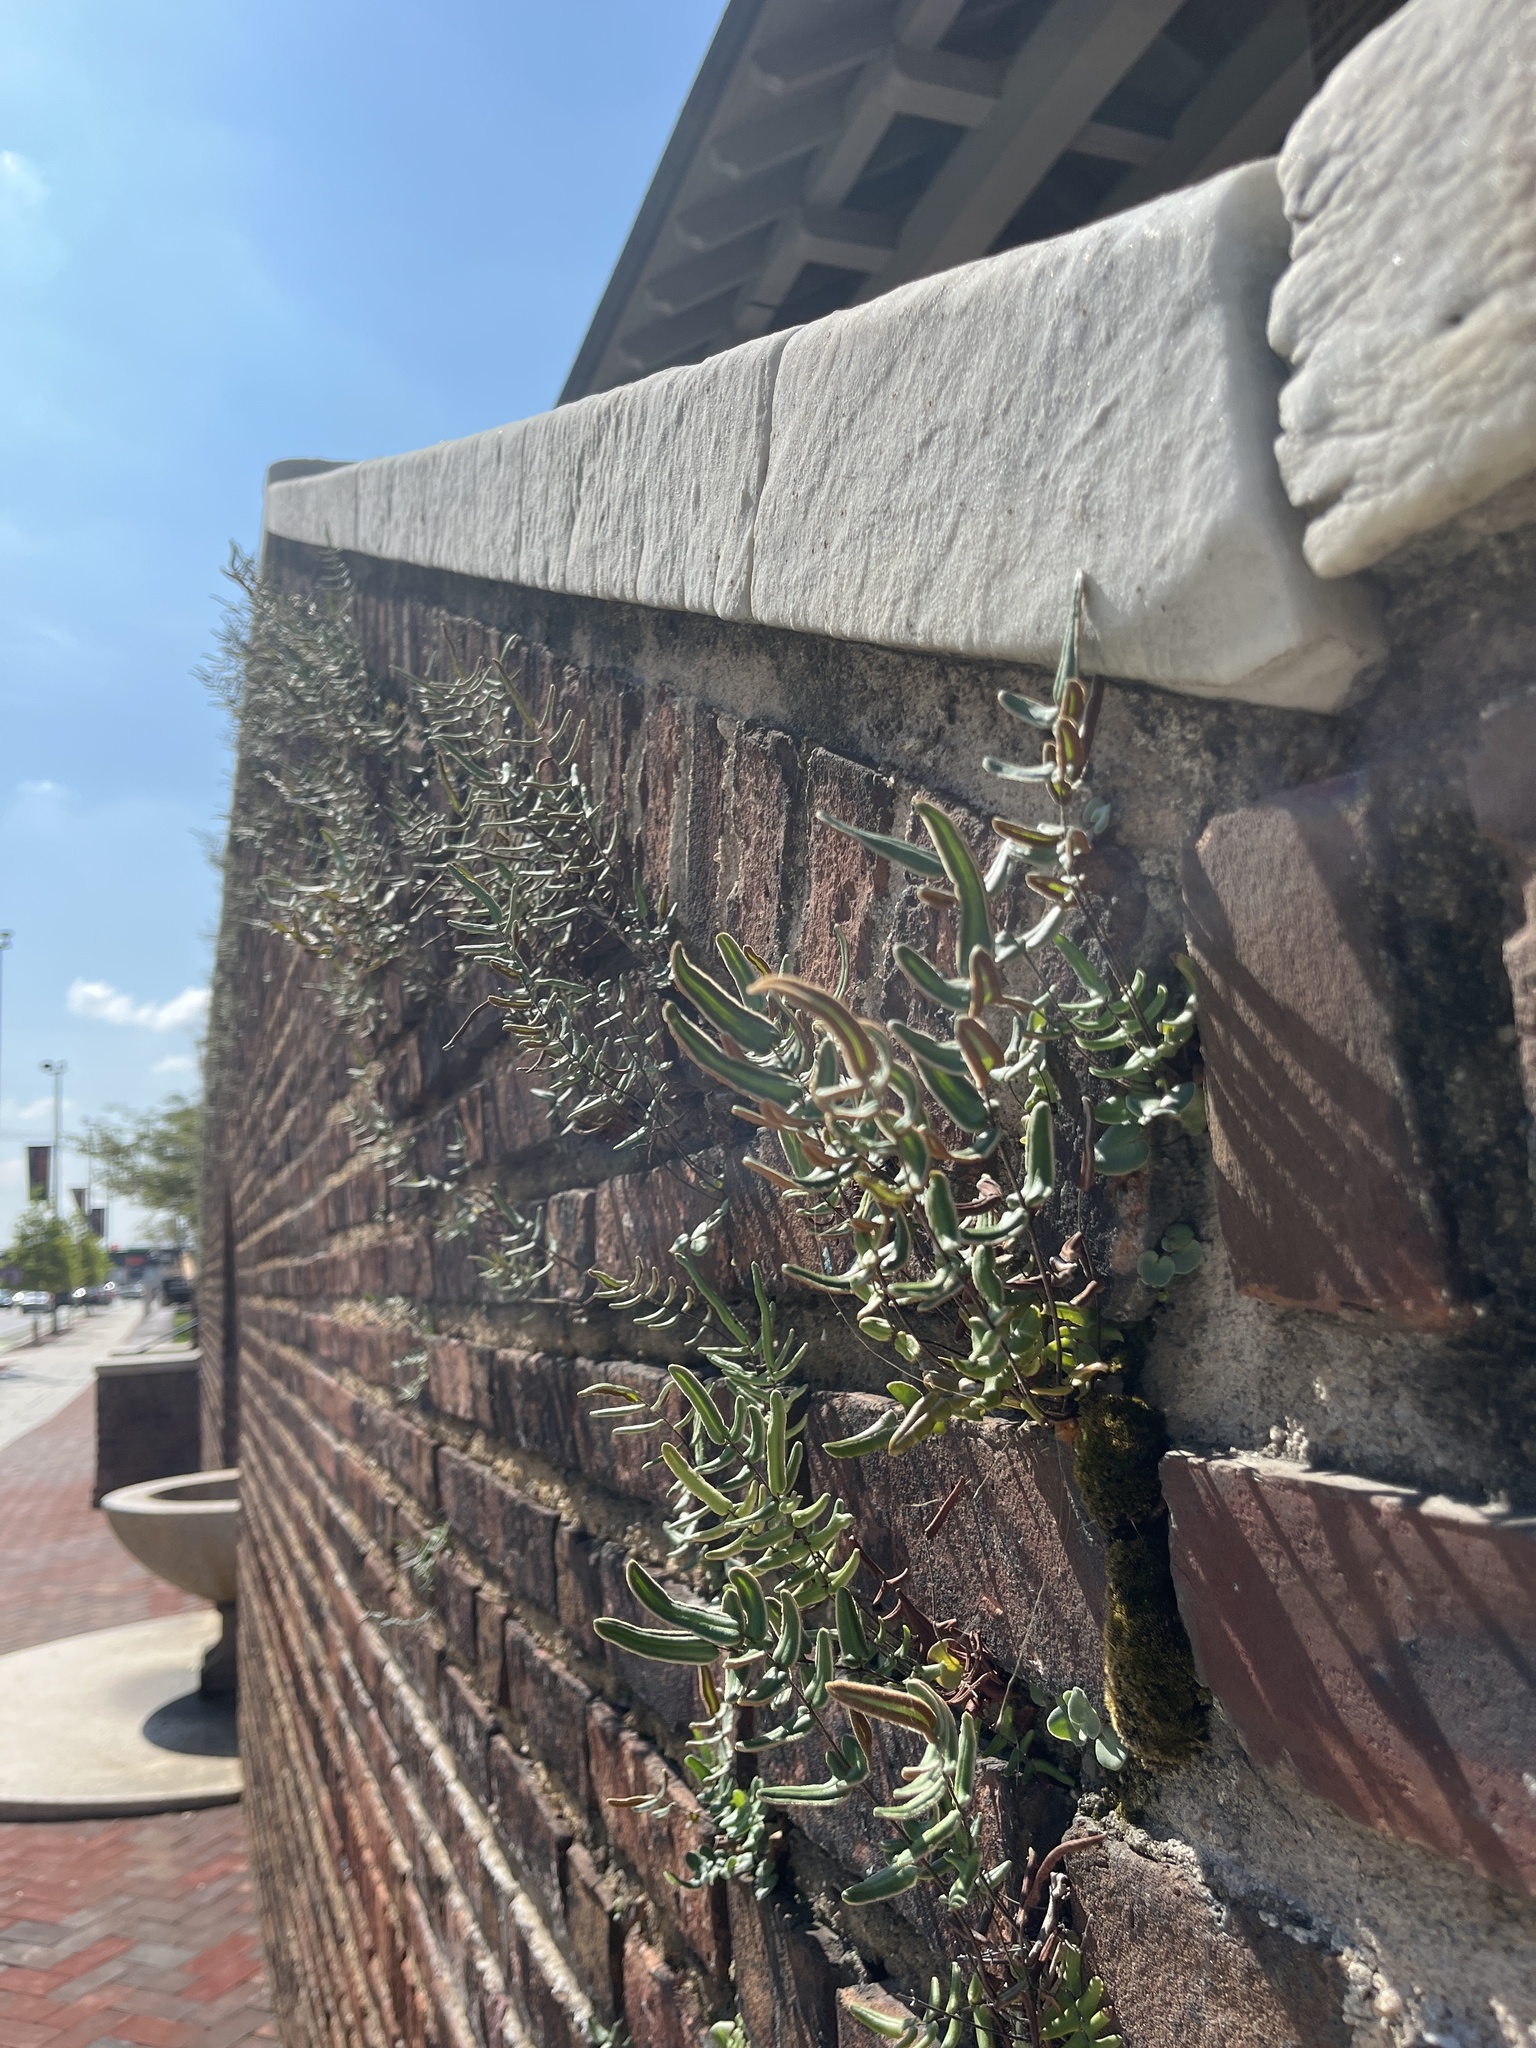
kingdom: Plantae
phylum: Tracheophyta
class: Polypodiopsida
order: Polypodiales
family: Pteridaceae
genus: Pellaea
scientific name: Pellaea atropurpurea
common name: Hairy cliffbrake
